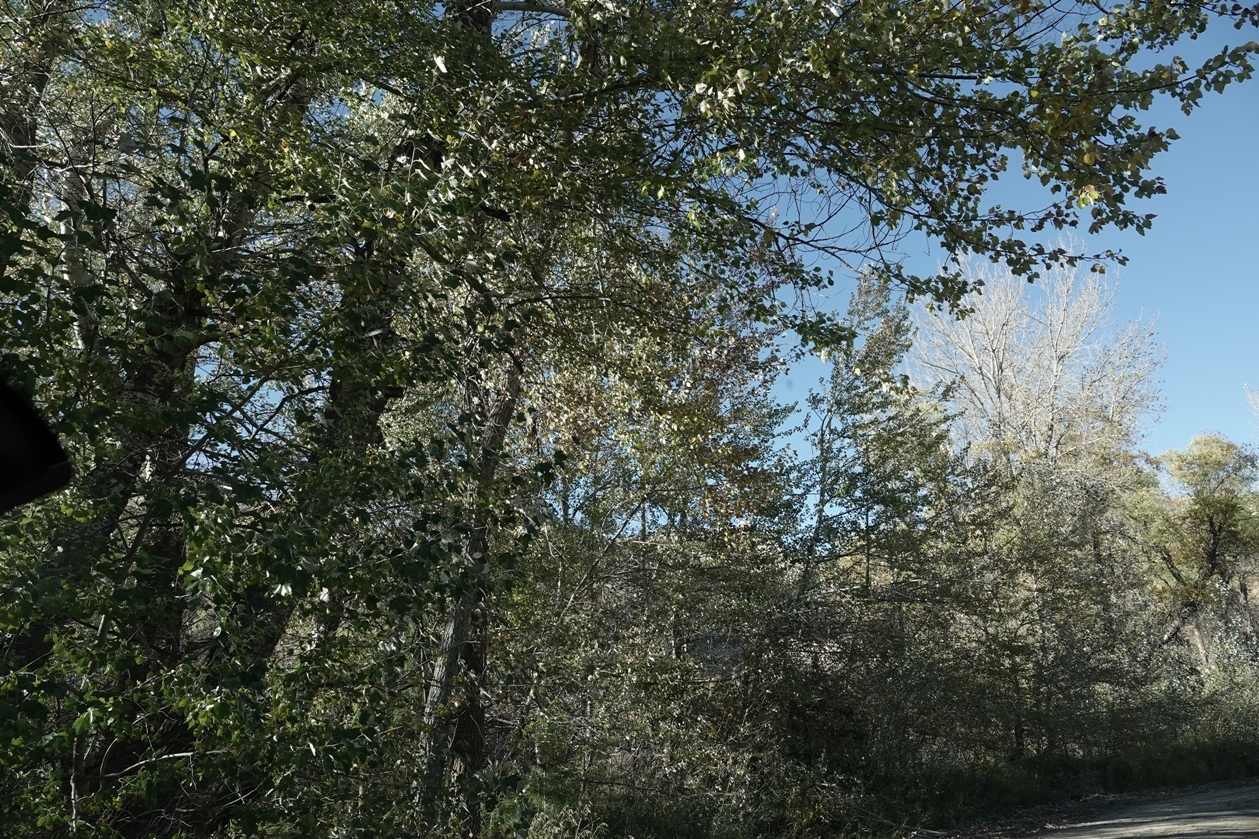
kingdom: Plantae
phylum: Tracheophyta
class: Magnoliopsida
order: Malpighiales
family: Salicaceae
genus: Populus
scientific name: Populus alba
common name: White poplar
